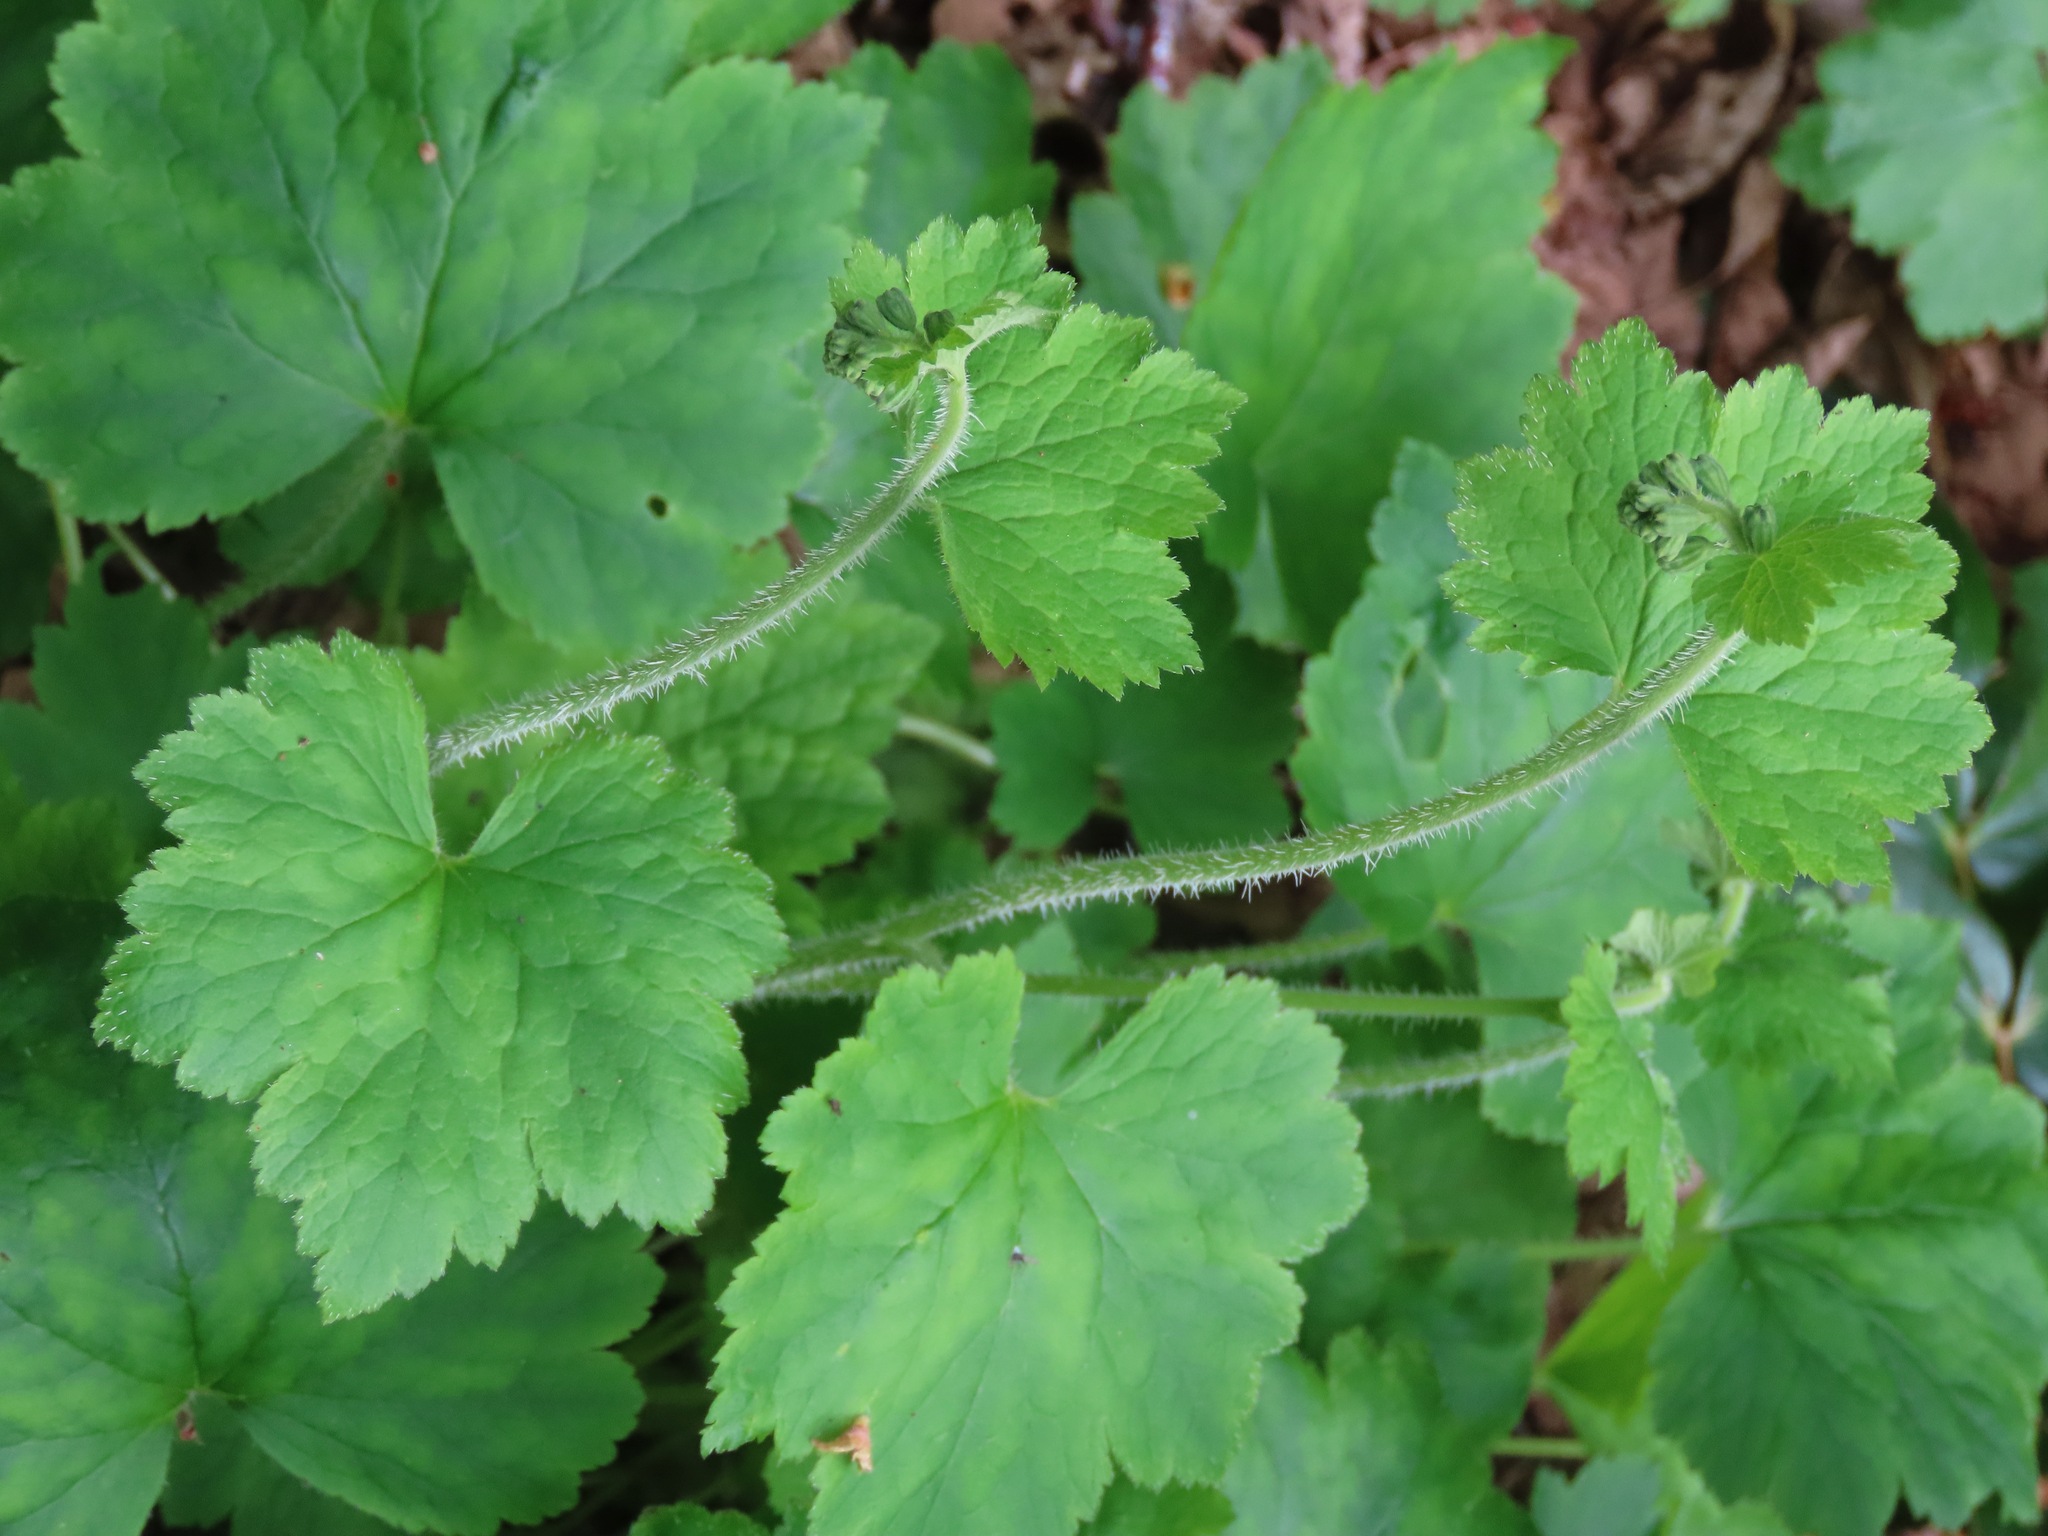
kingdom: Plantae
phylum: Tracheophyta
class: Magnoliopsida
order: Saxifragales
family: Saxifragaceae
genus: Tellima
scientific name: Tellima grandiflora
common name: Fringecups
